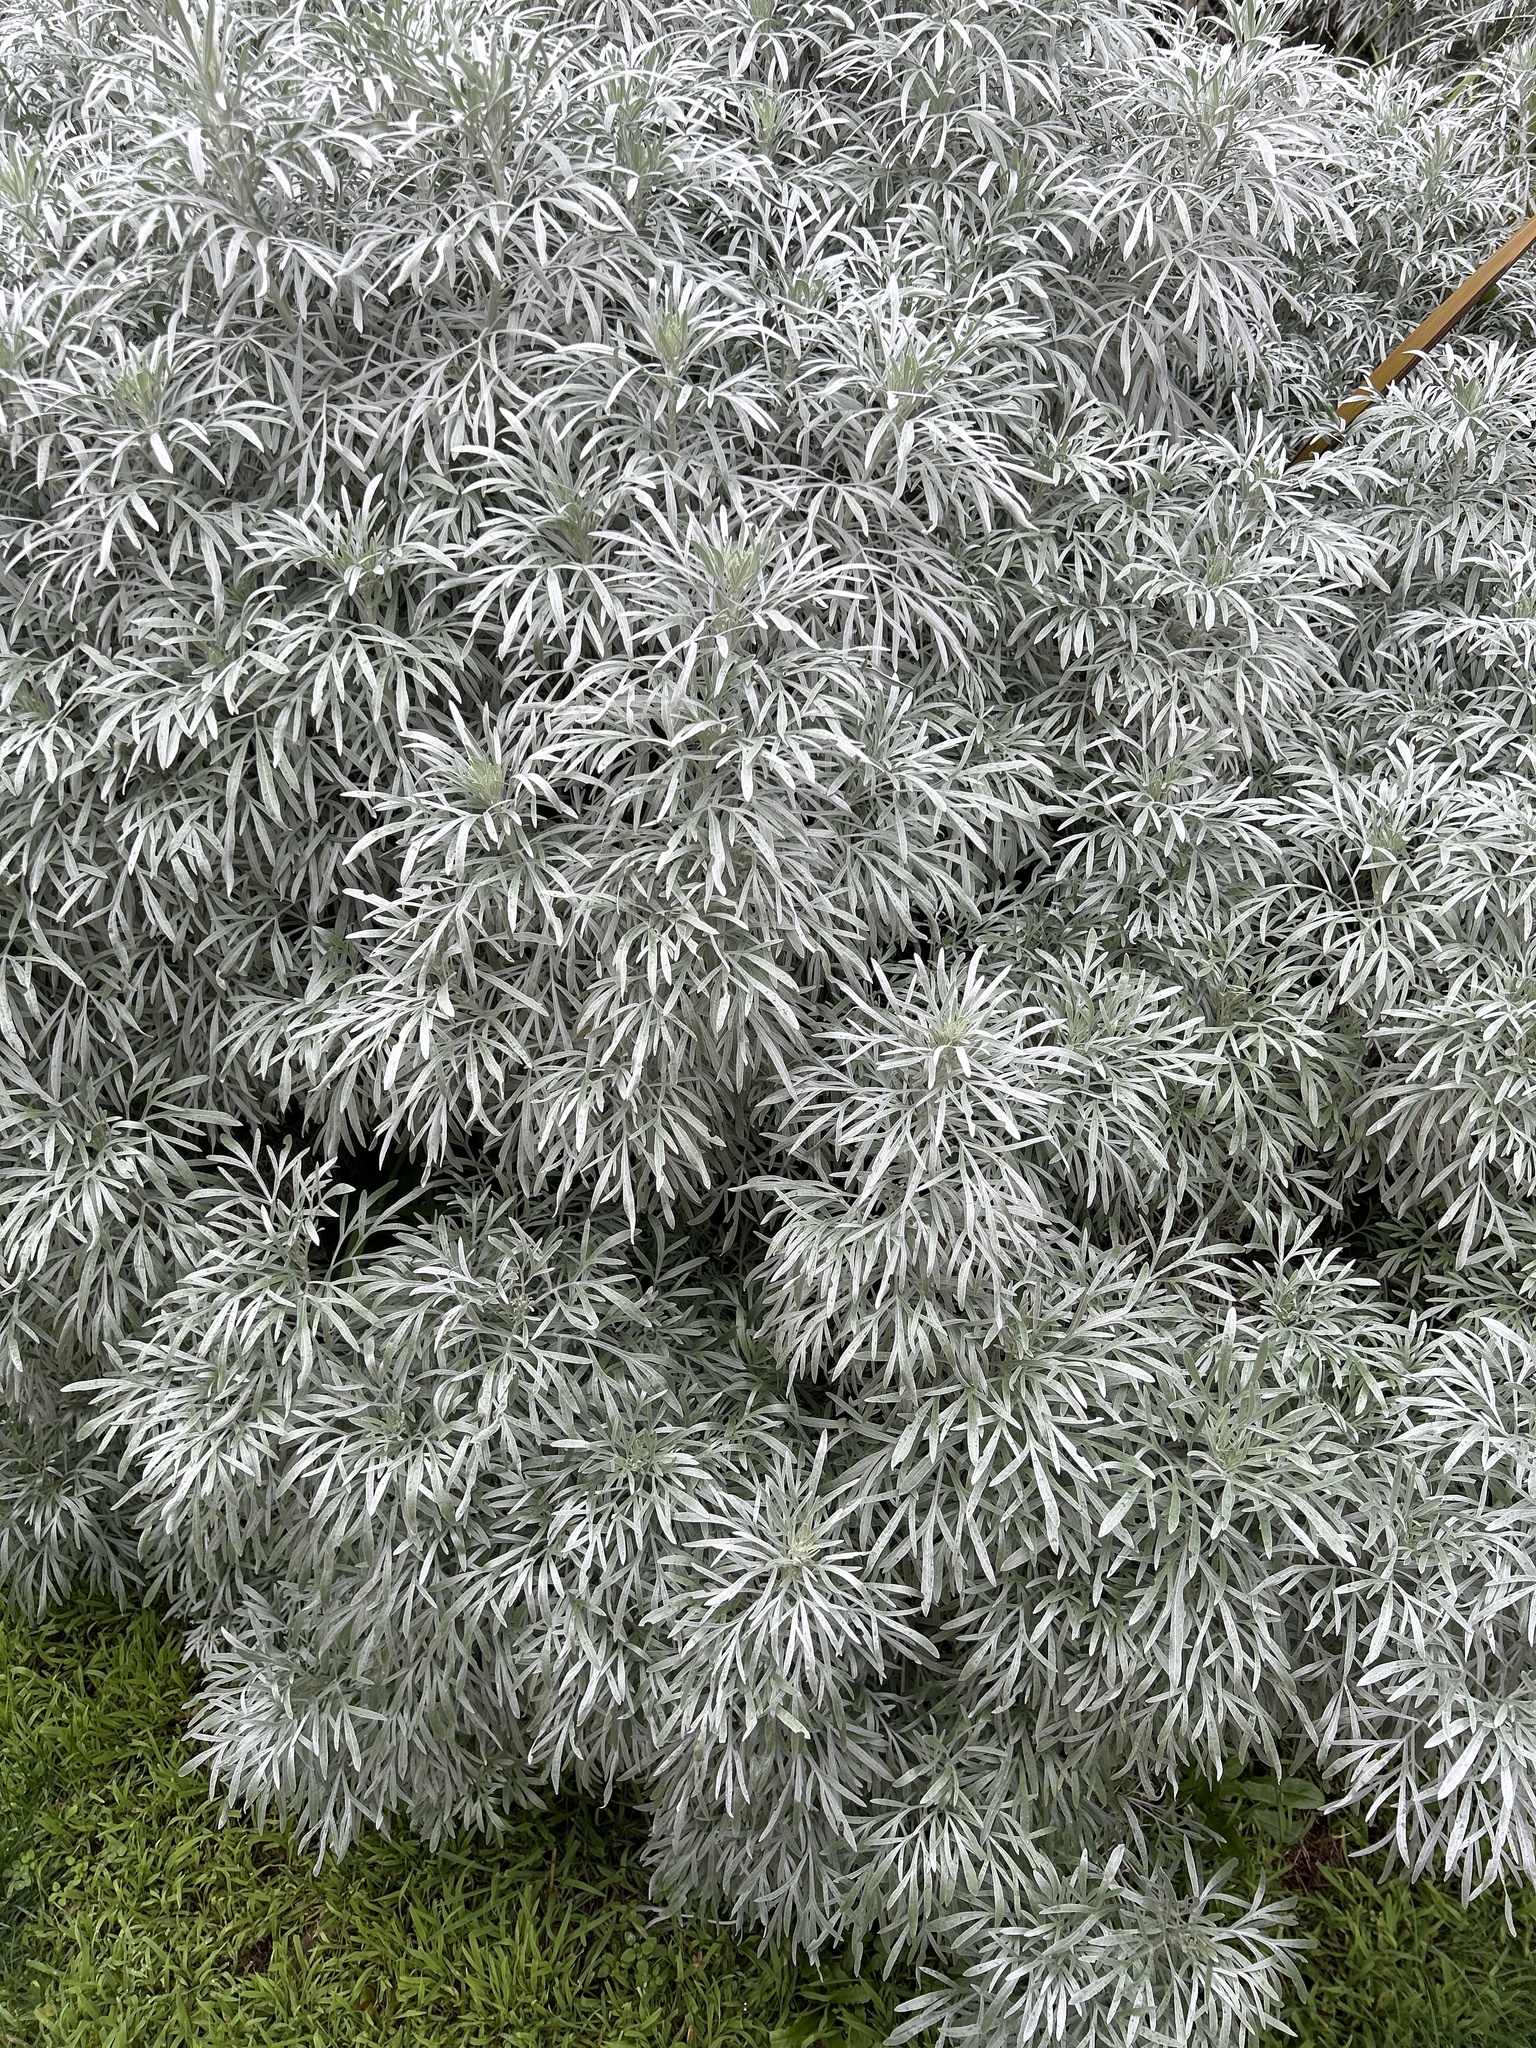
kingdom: Plantae
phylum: Tracheophyta
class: Magnoliopsida
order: Asterales
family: Asteraceae
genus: Artemisia
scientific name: Artemisia arborescens
